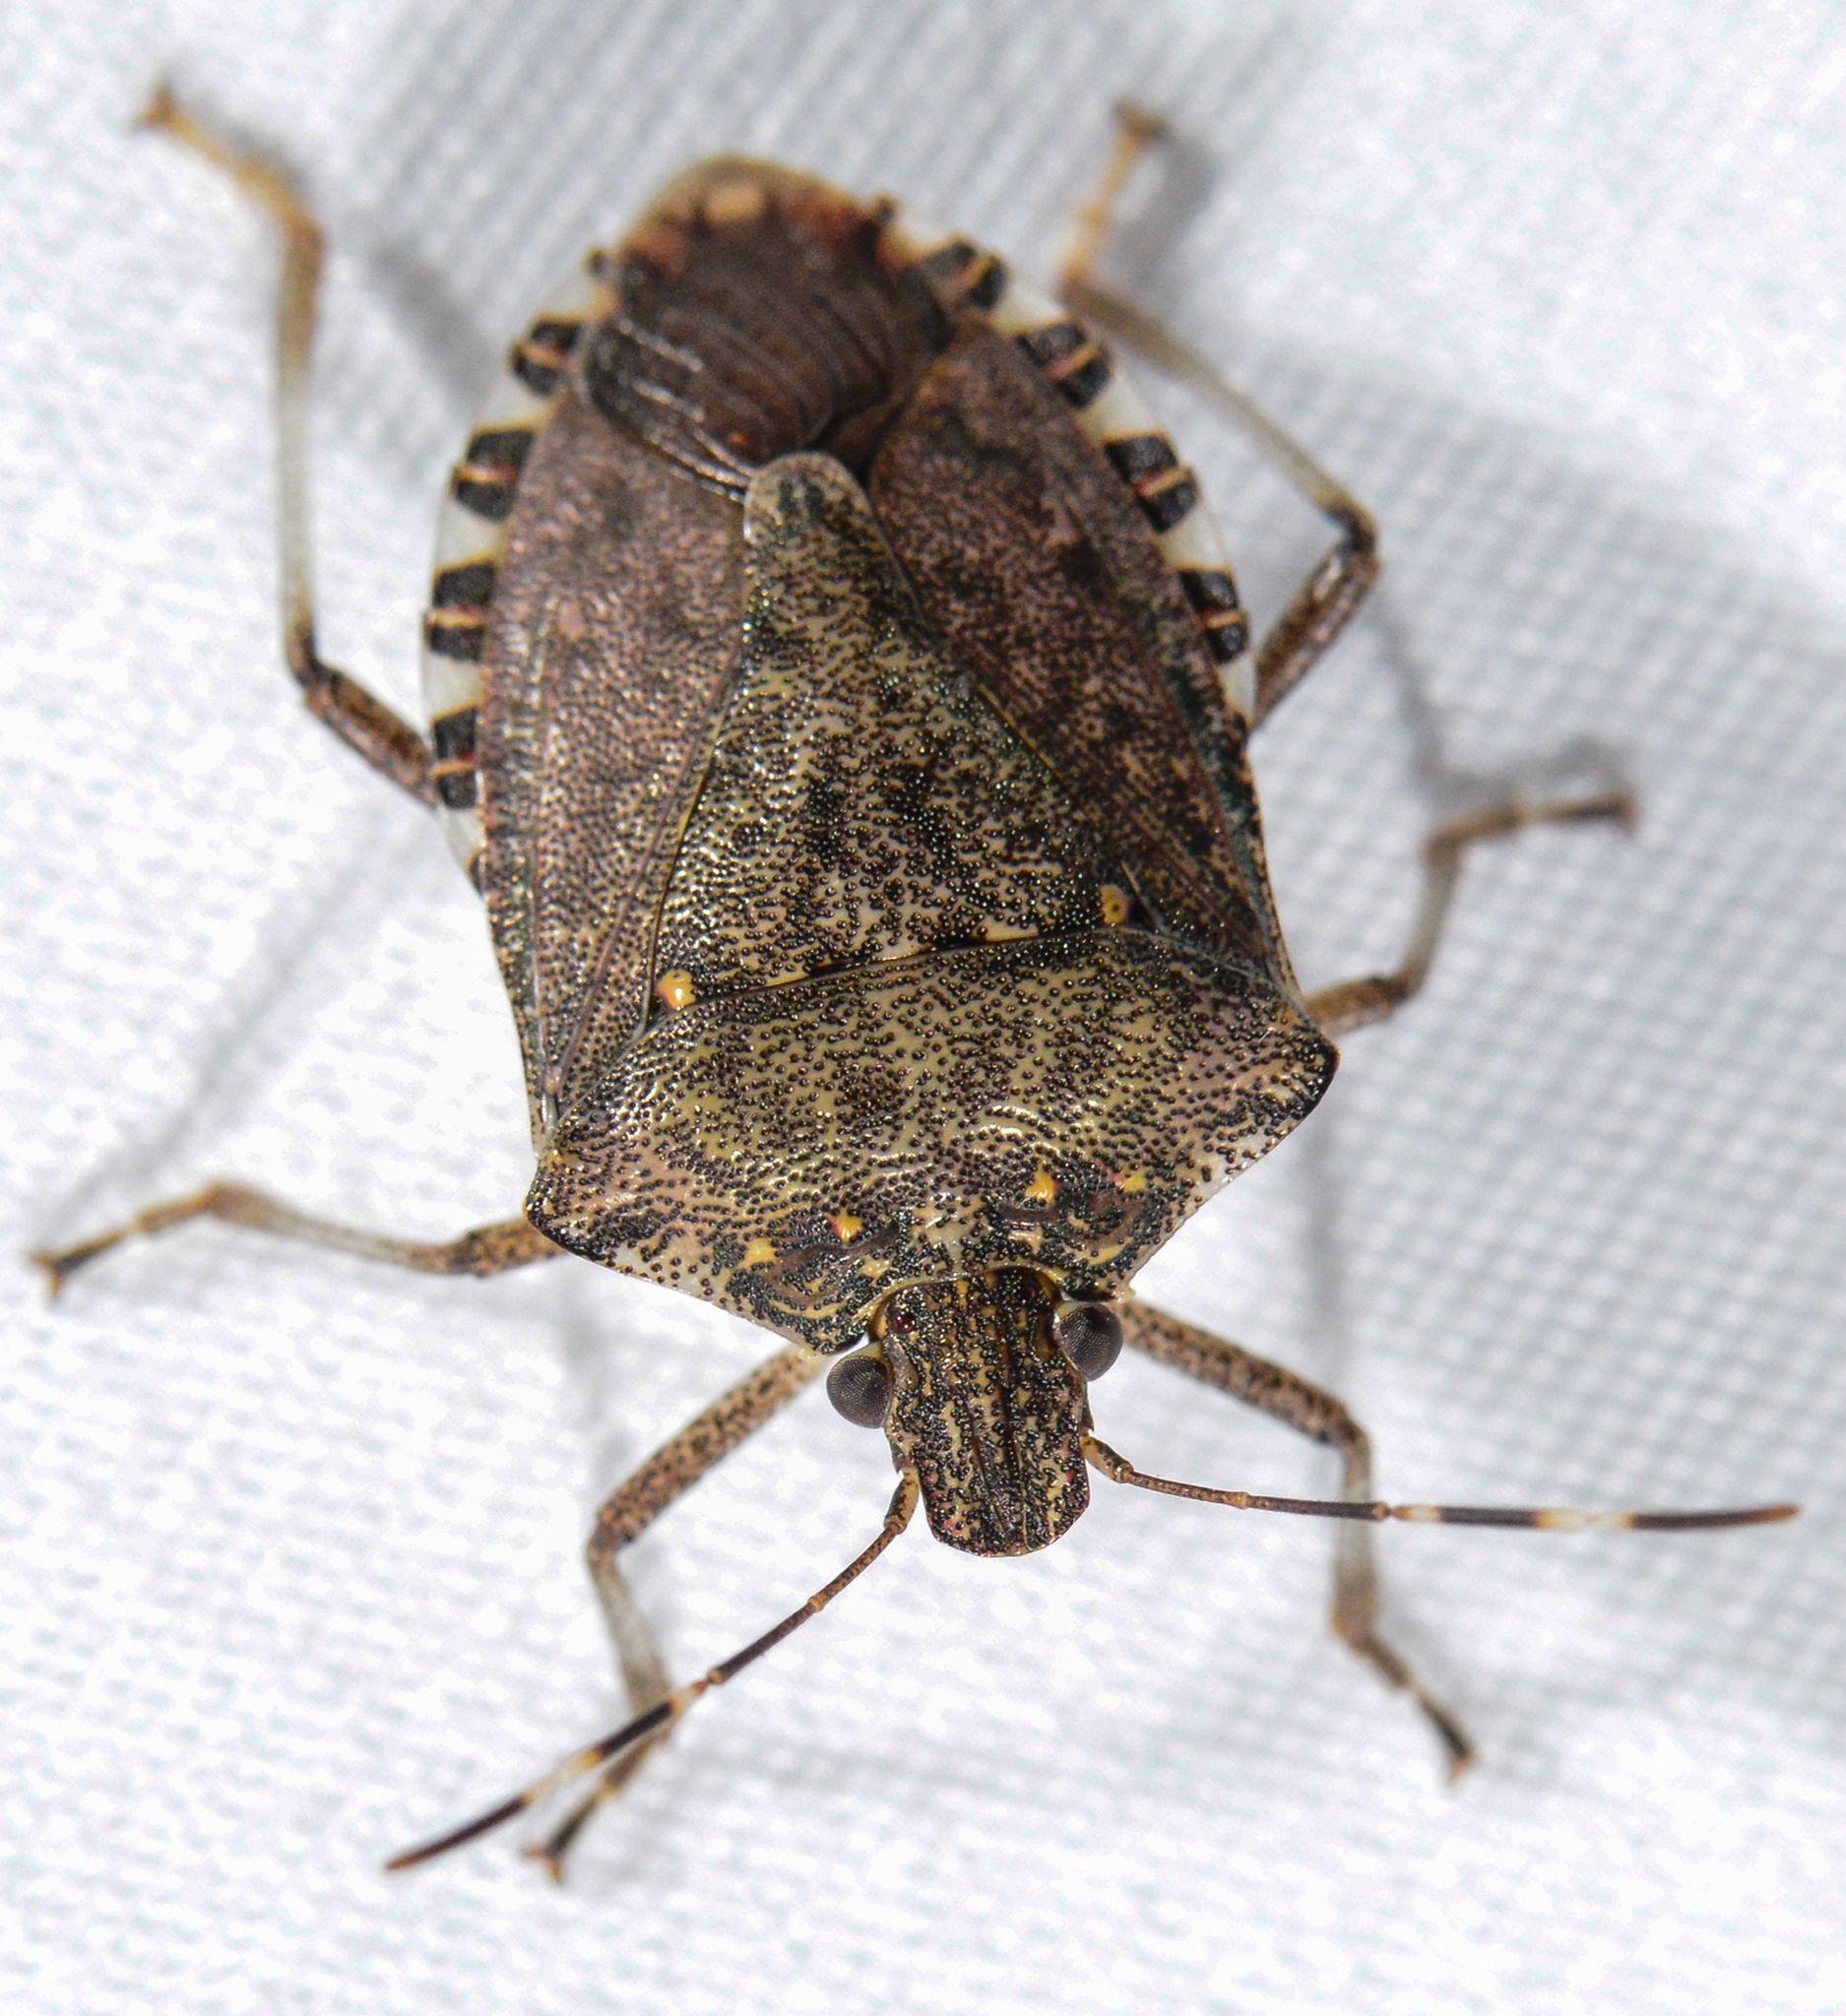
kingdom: Animalia
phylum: Arthropoda
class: Insecta
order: Hemiptera
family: Pentatomidae
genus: Halyomorpha
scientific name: Halyomorpha halys
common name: Brown marmorated stink bug
